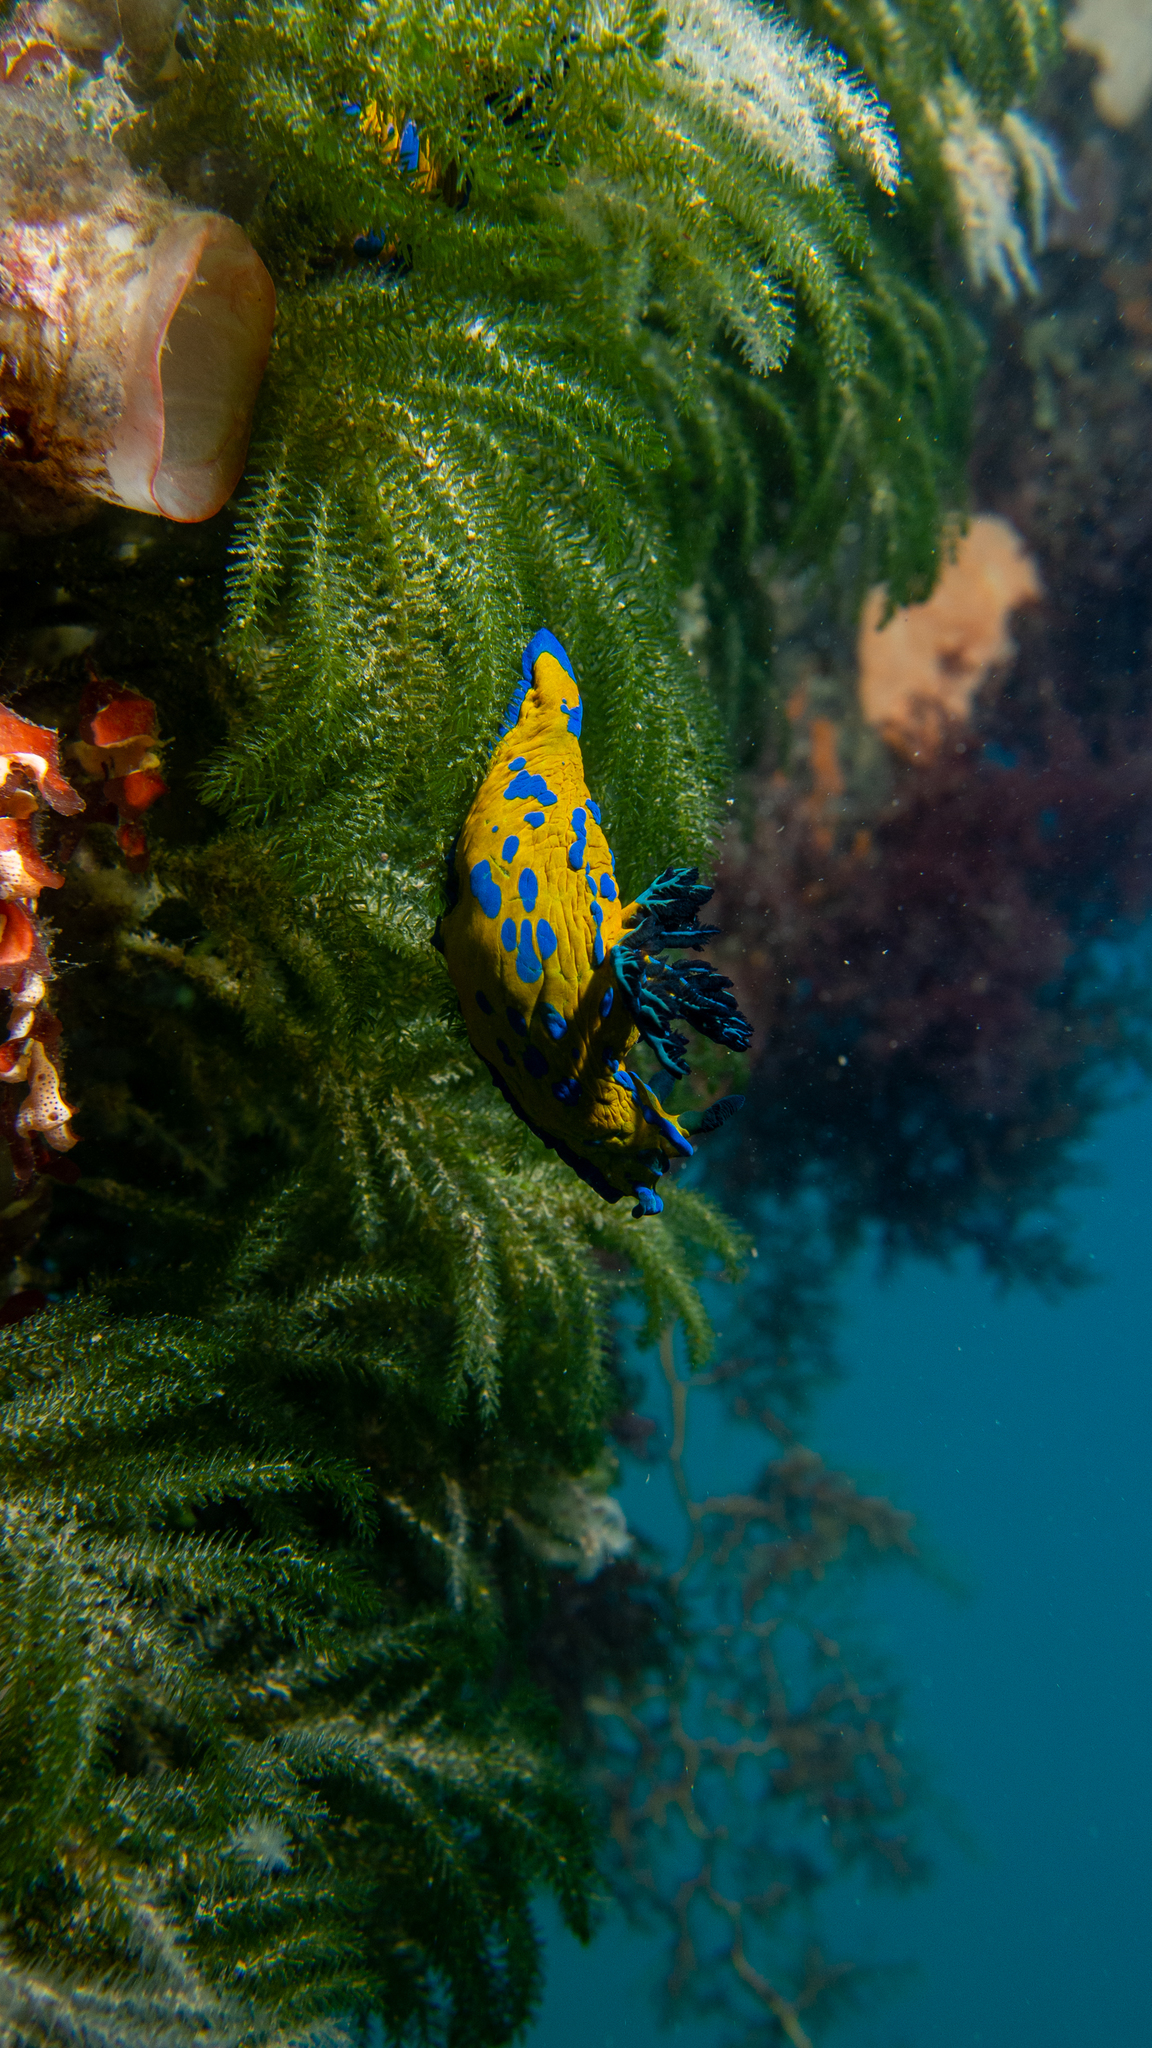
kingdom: Animalia
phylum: Mollusca
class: Gastropoda
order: Nudibranchia
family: Polyceridae
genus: Tambja
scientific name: Tambja verconis
